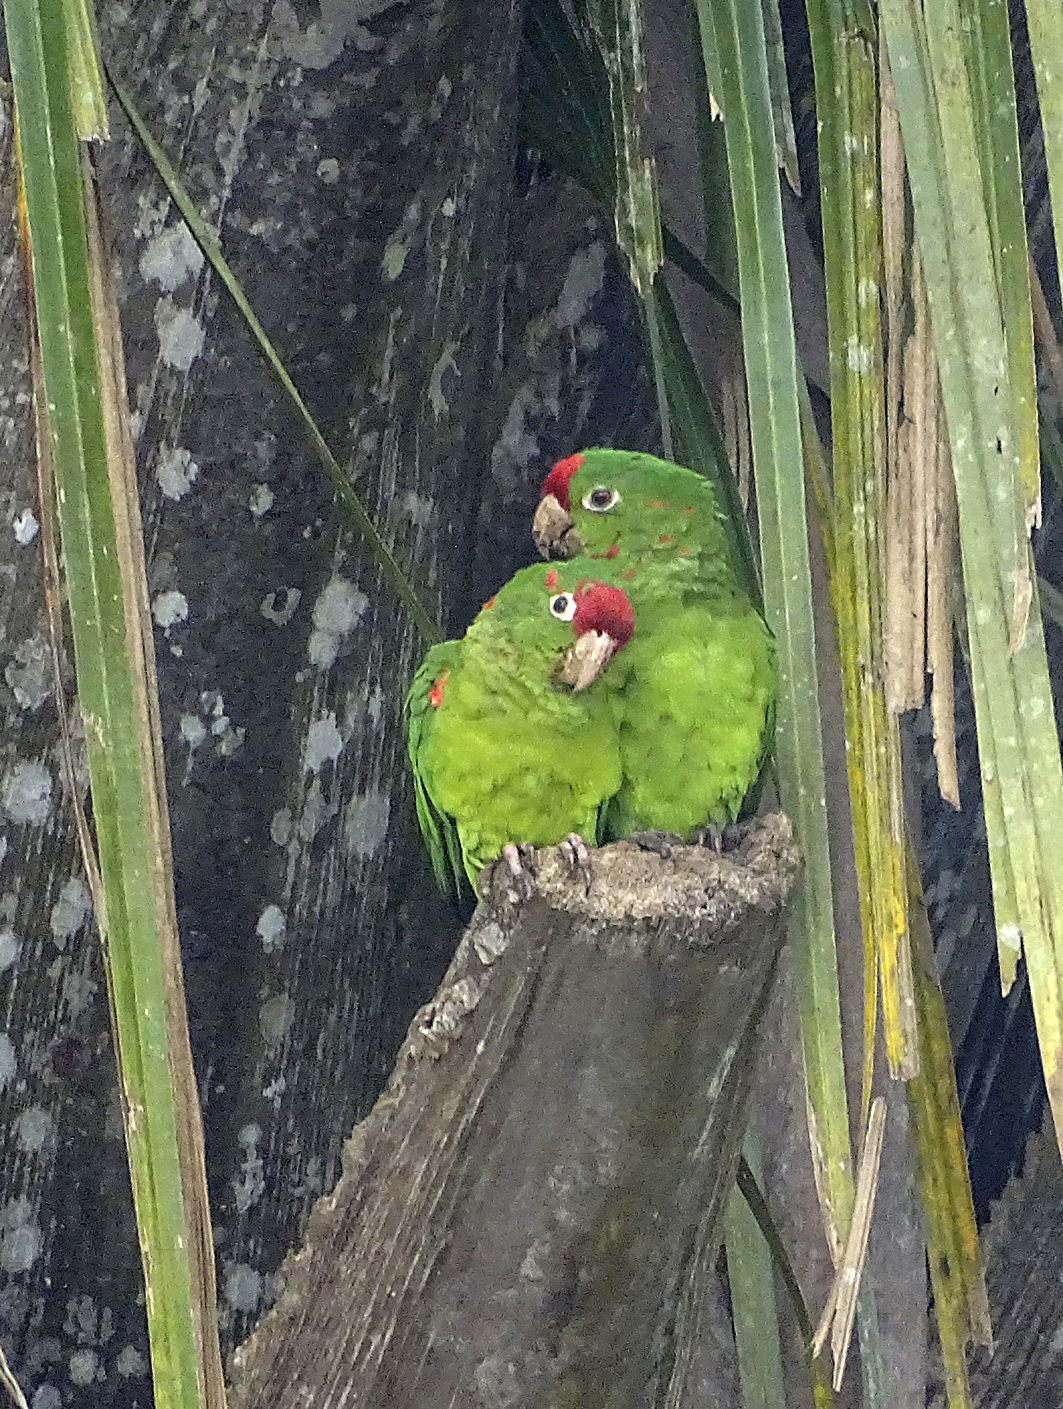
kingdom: Animalia
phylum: Chordata
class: Aves
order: Psittaciformes
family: Psittacidae
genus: Aratinga
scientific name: Aratinga finschi
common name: Crimson-fronted parakeet
